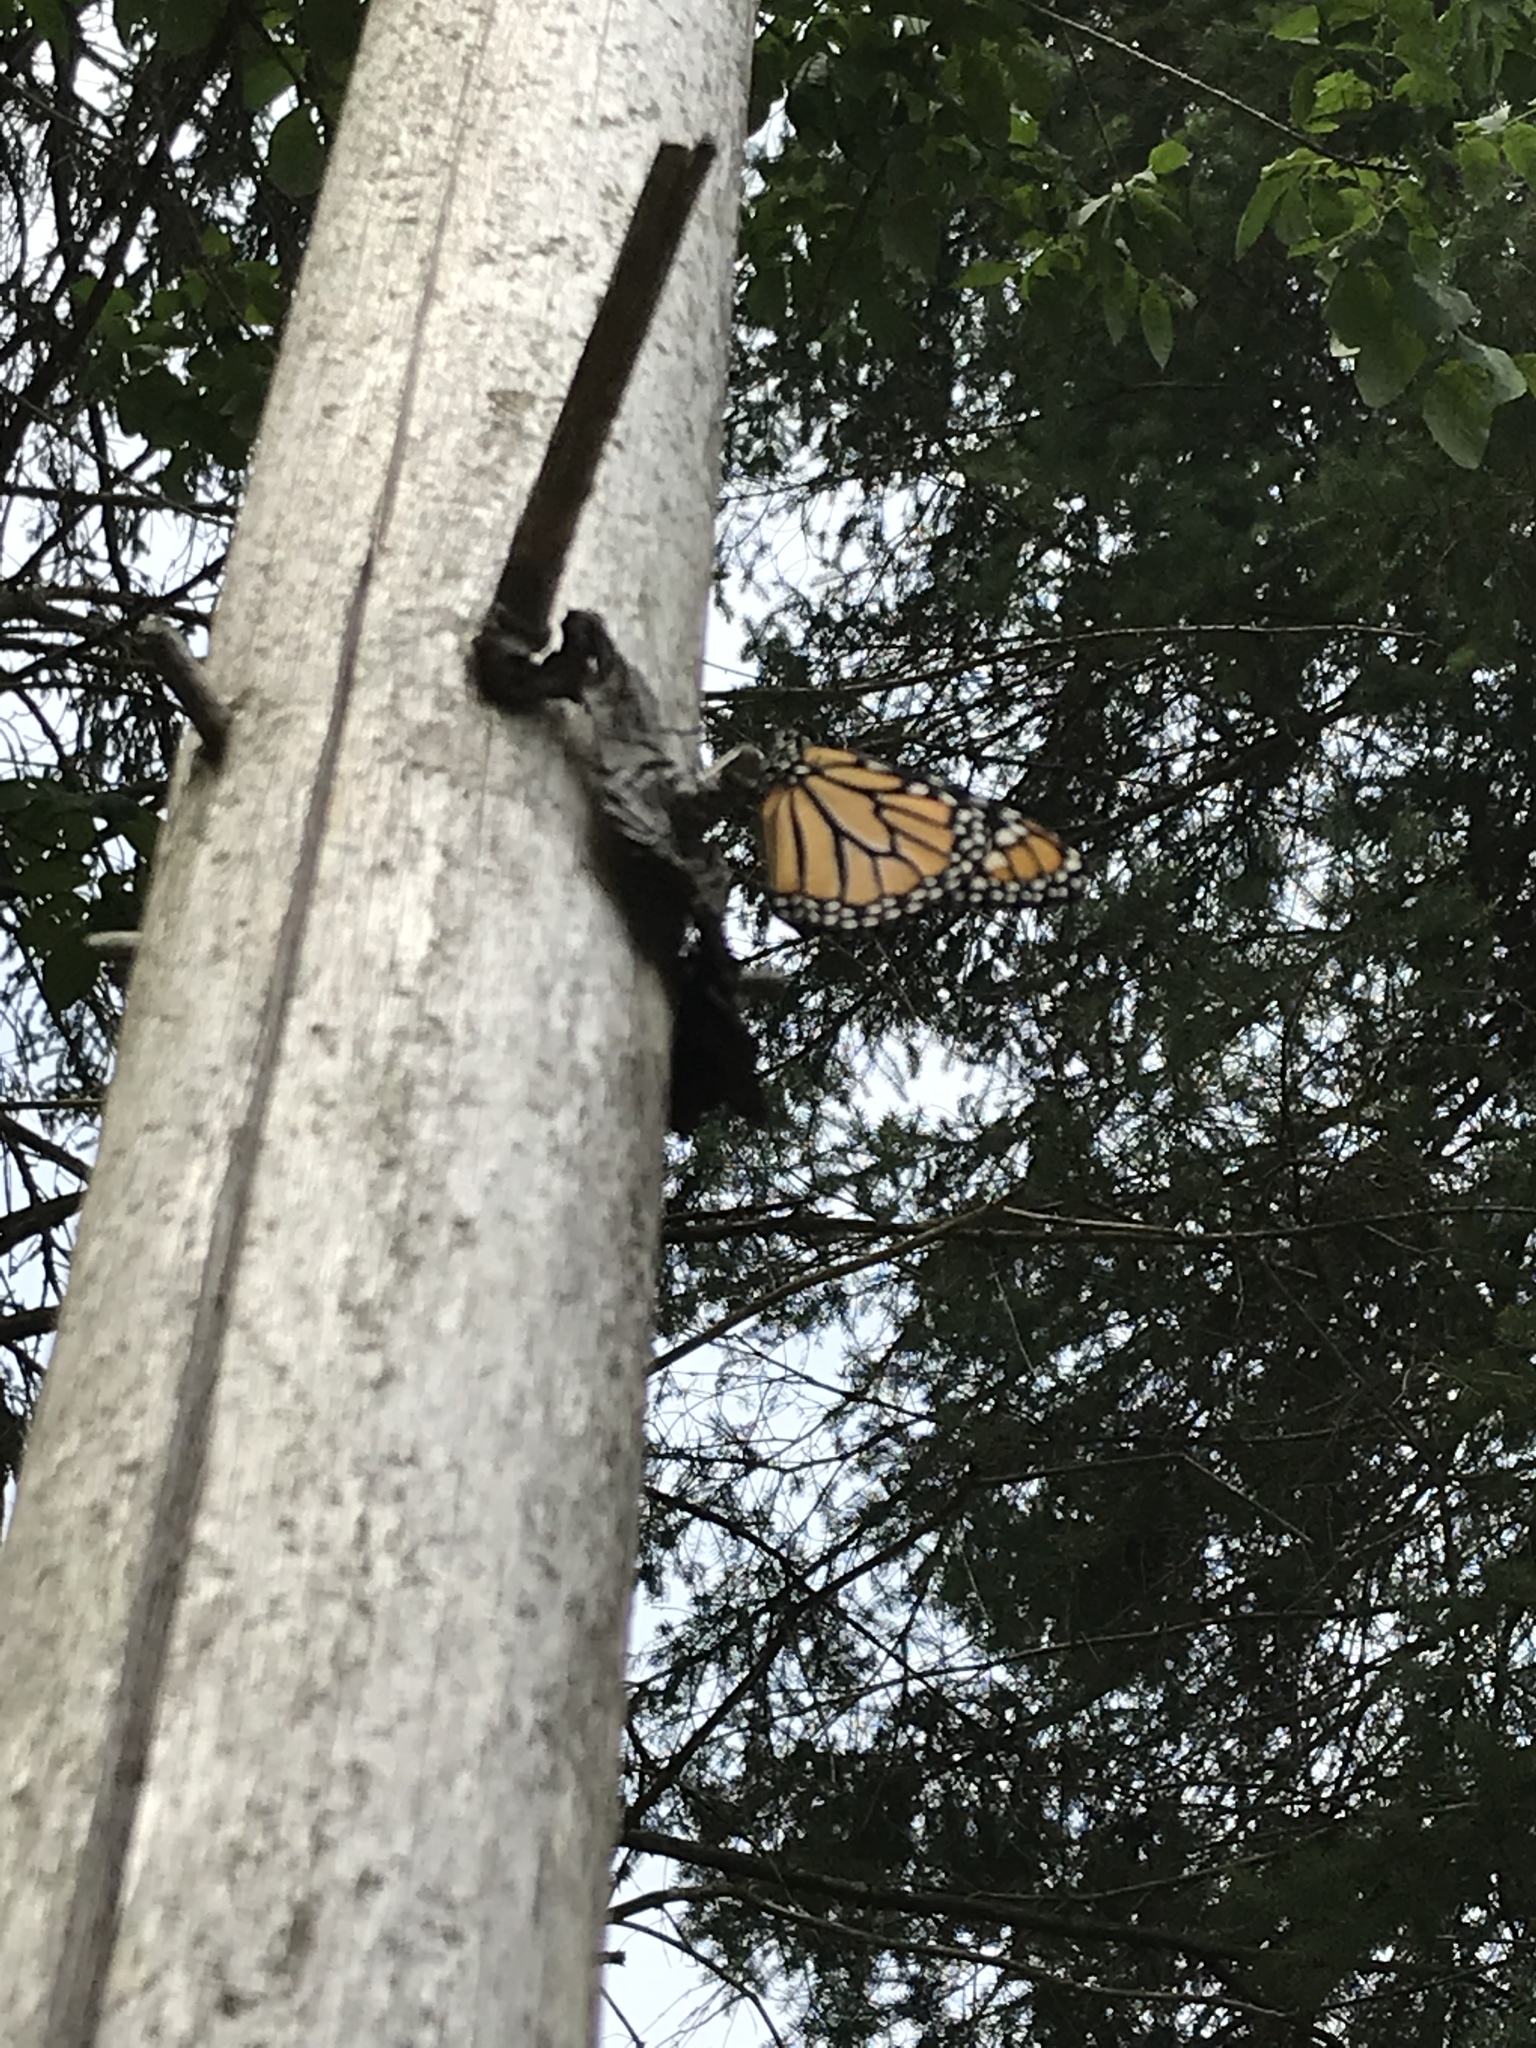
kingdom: Animalia
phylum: Arthropoda
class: Insecta
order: Lepidoptera
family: Nymphalidae
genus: Danaus
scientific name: Danaus plexippus
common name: Monarch
